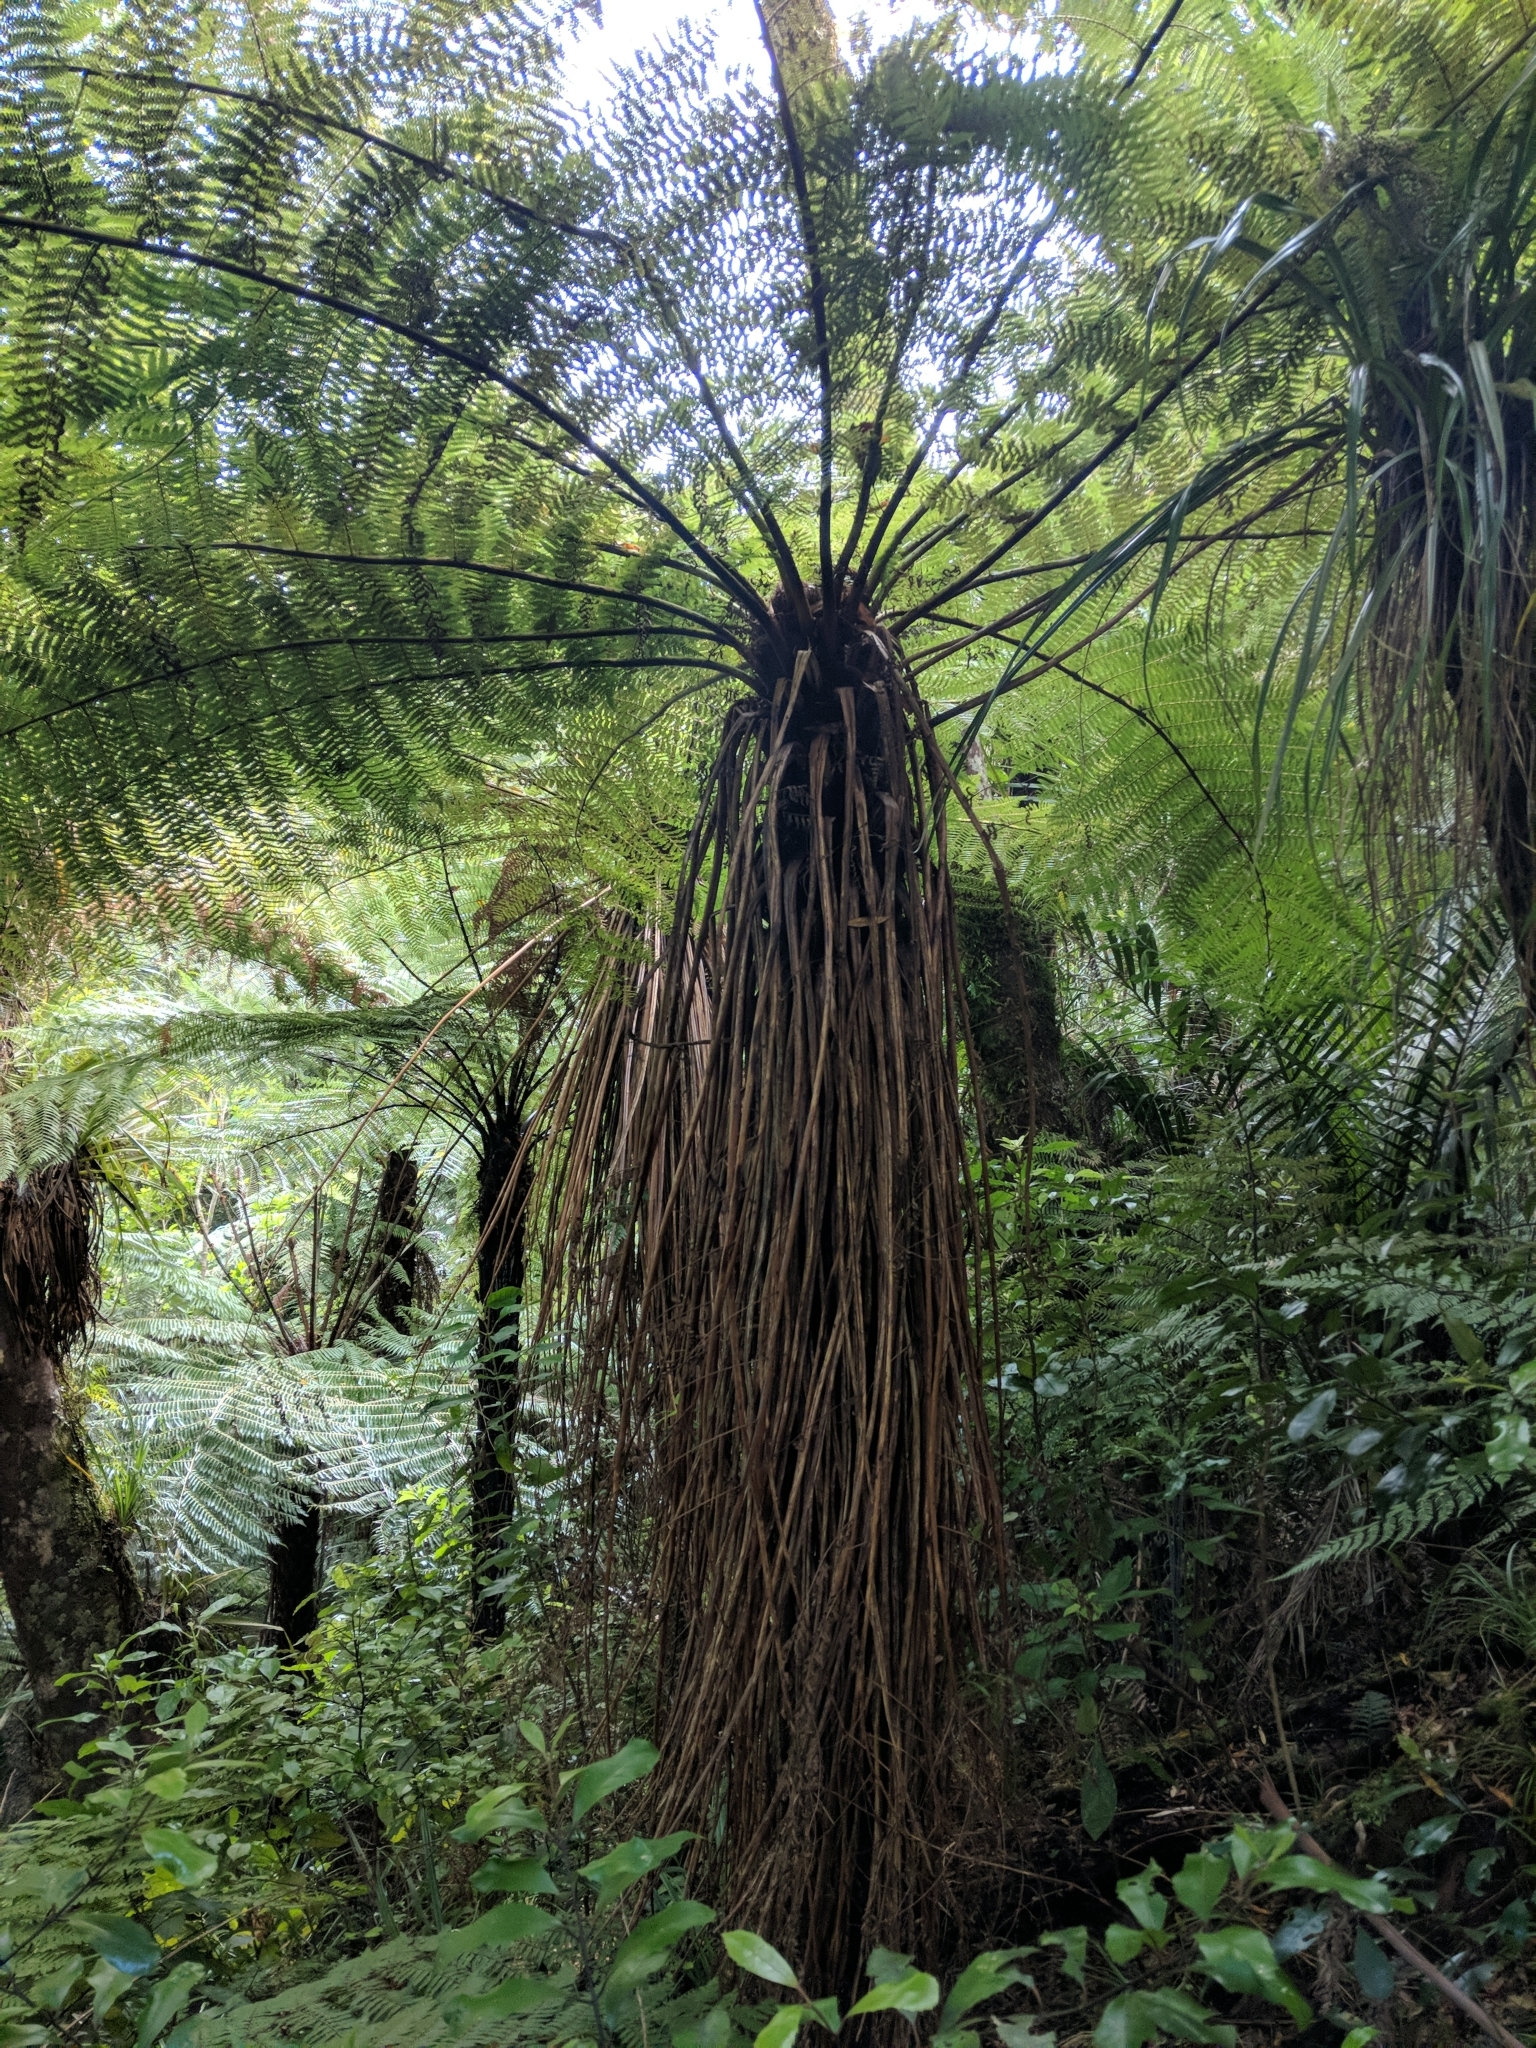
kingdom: Plantae
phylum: Tracheophyta
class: Polypodiopsida
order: Cyatheales
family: Cyatheaceae
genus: Alsophila
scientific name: Alsophila smithii
